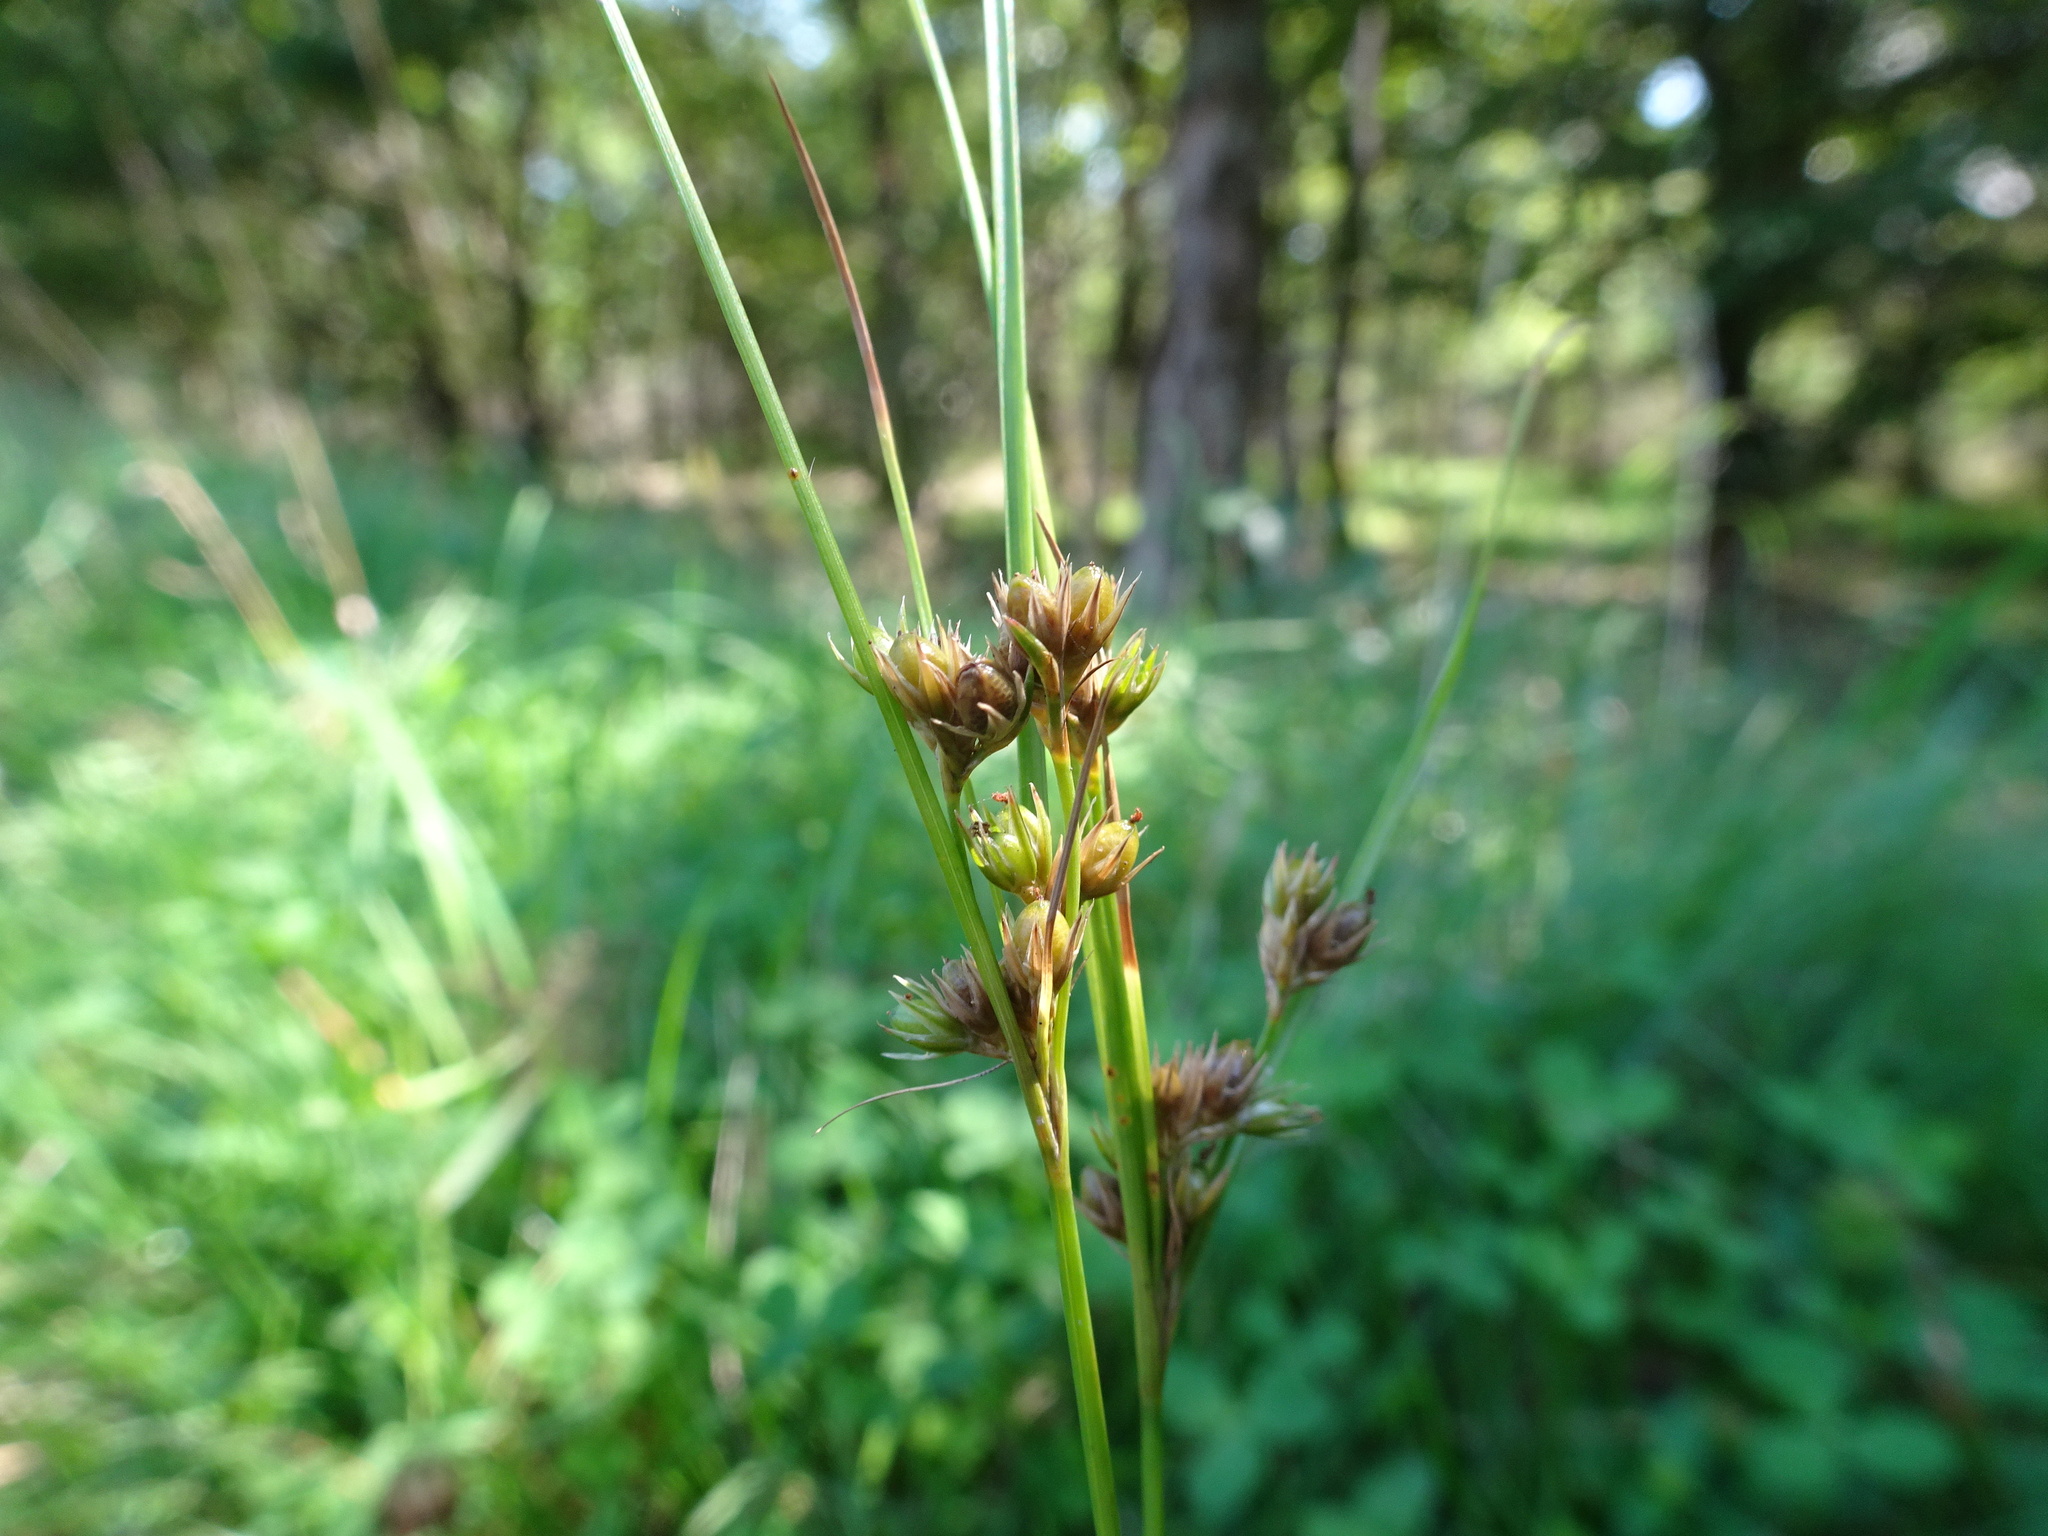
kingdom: Plantae
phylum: Tracheophyta
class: Liliopsida
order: Poales
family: Juncaceae
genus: Juncus
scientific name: Juncus tenuis
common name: Slender rush
